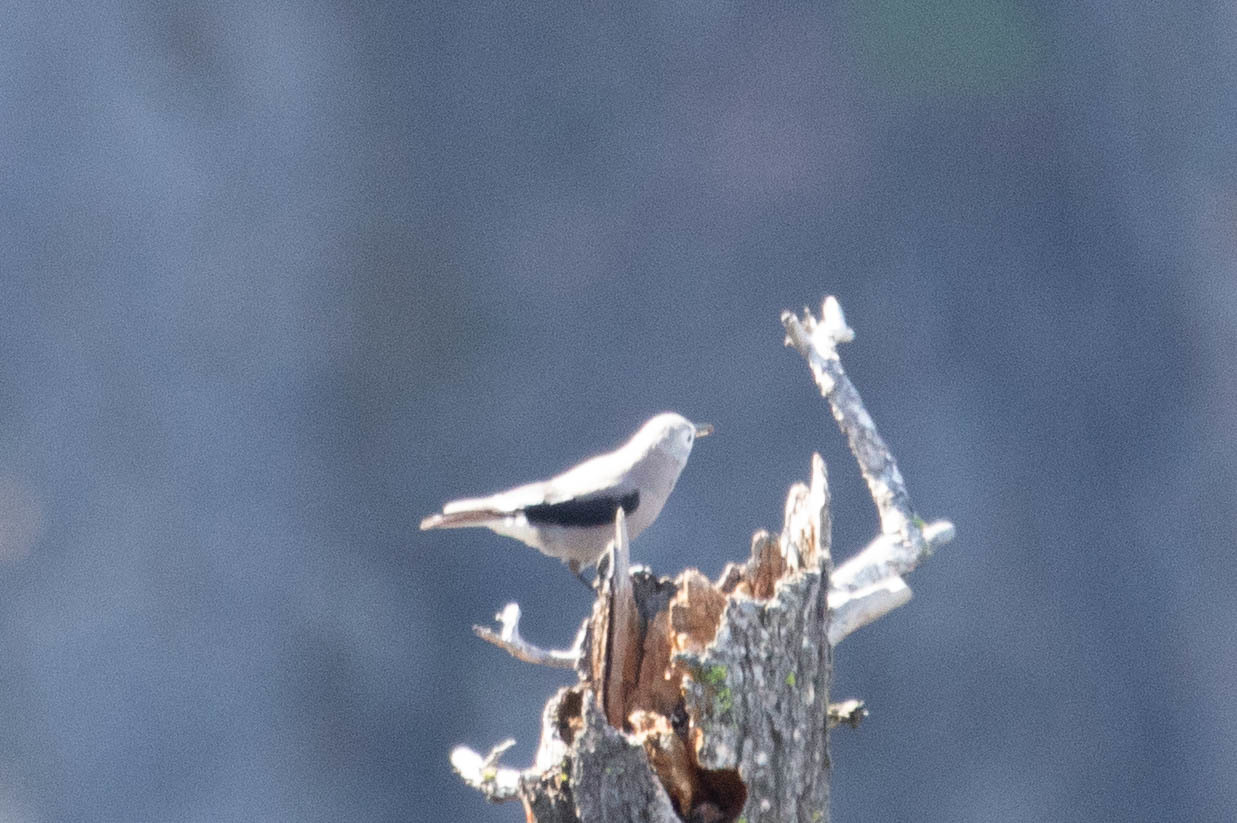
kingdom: Animalia
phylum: Chordata
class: Aves
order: Passeriformes
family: Corvidae
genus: Nucifraga
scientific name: Nucifraga columbiana
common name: Clark's nutcracker
